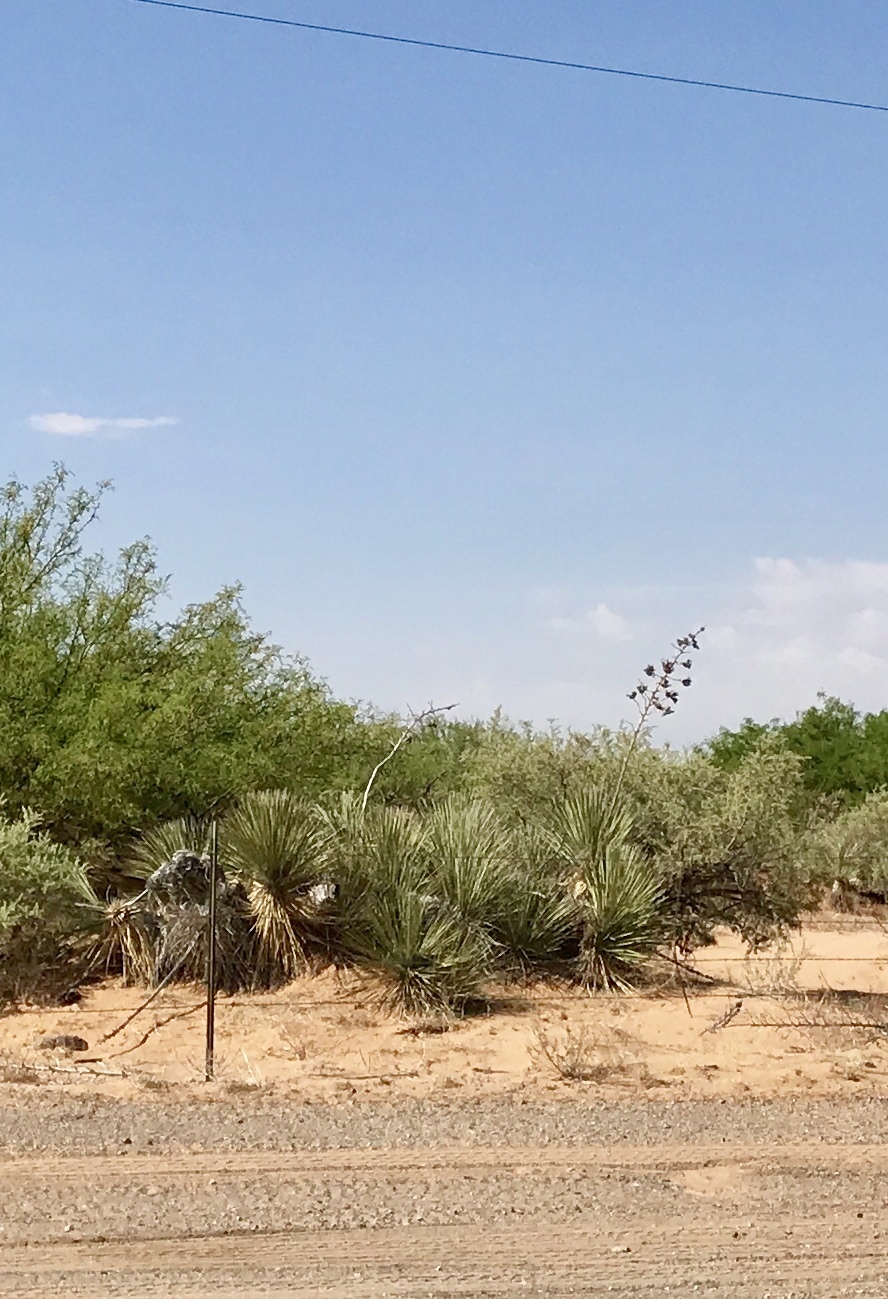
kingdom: Plantae
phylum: Tracheophyta
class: Liliopsida
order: Asparagales
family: Asparagaceae
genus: Yucca
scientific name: Yucca elata
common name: Palmella
